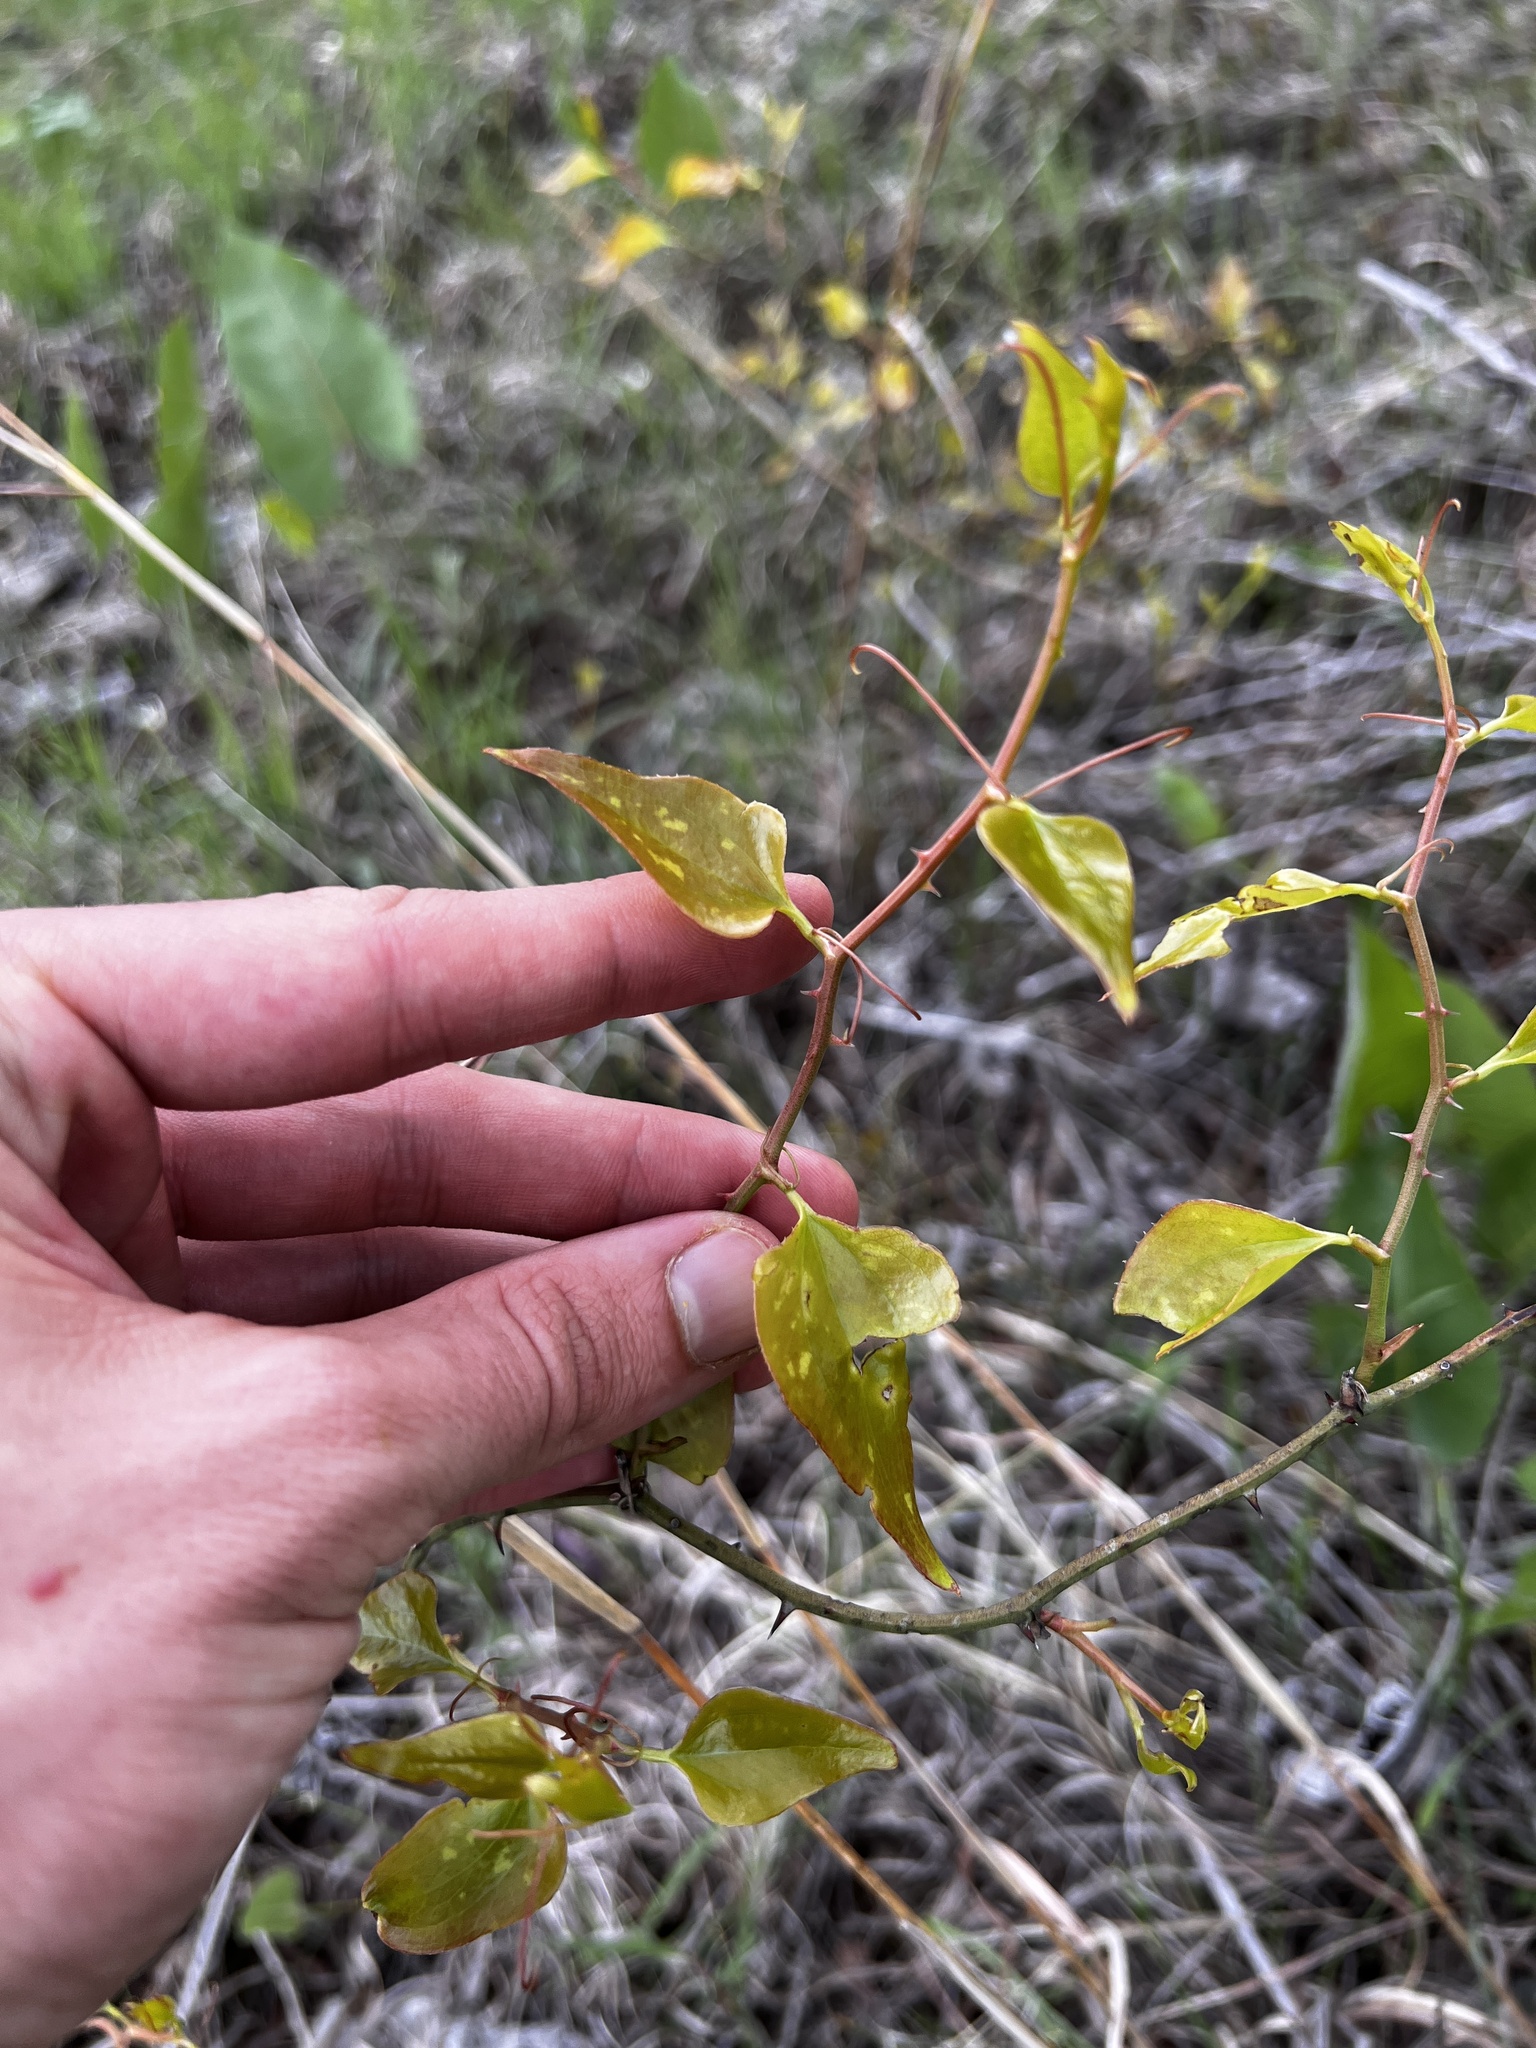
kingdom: Plantae
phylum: Tracheophyta
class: Liliopsida
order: Liliales
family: Smilacaceae
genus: Smilax
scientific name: Smilax bona-nox
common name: Catbrier
